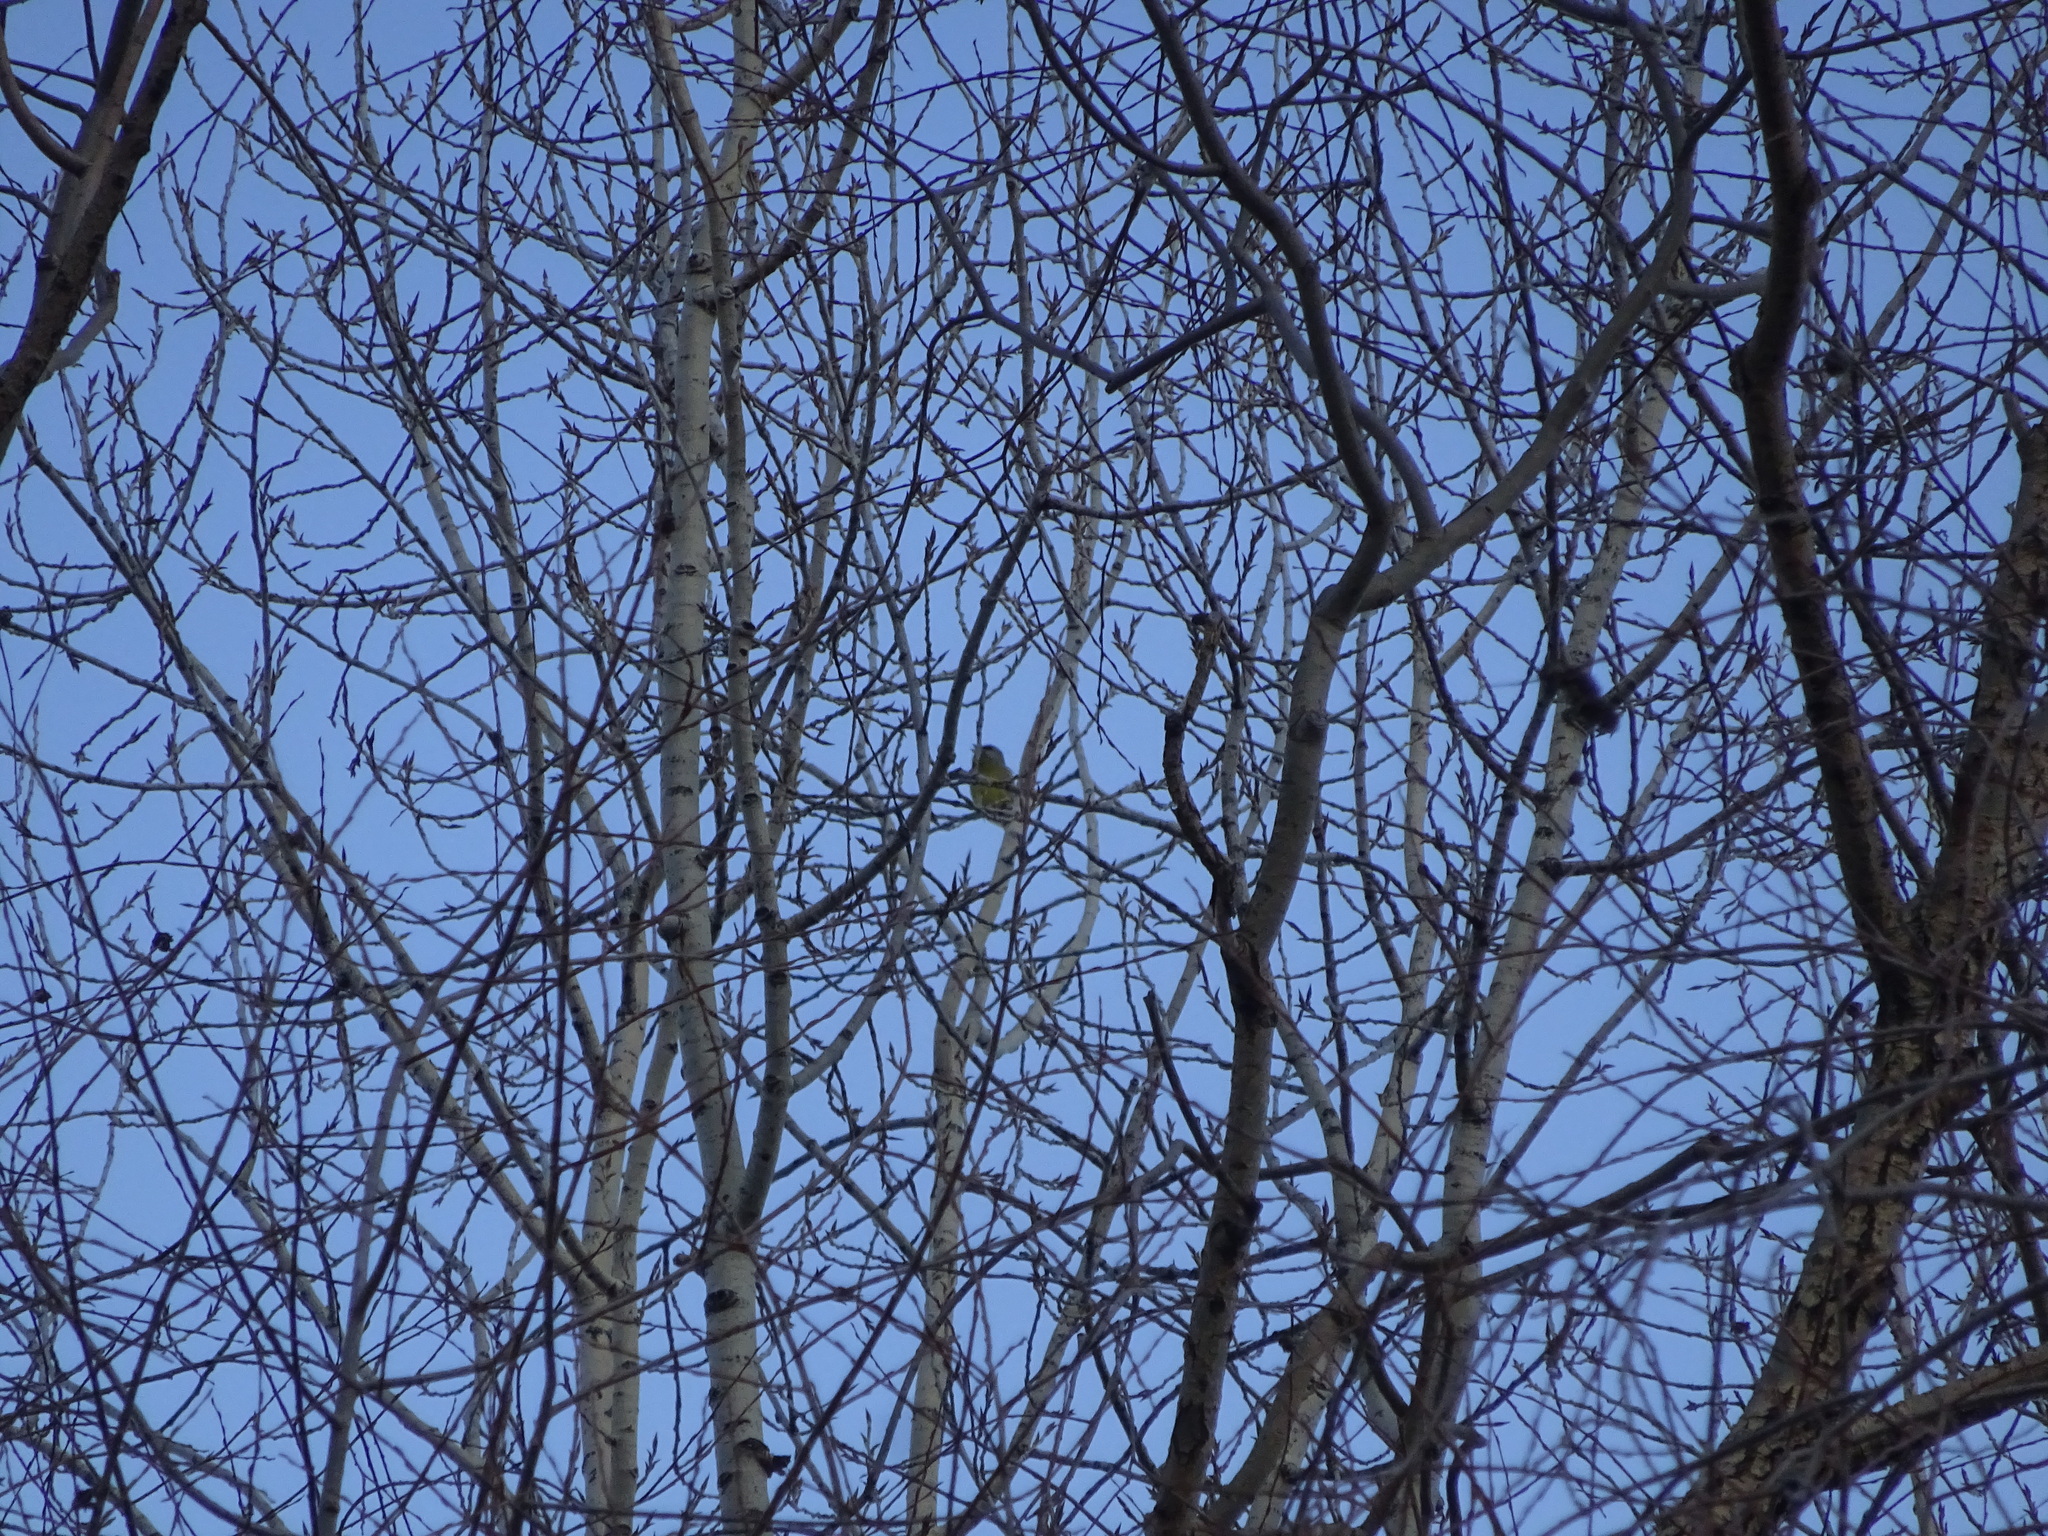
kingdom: Plantae
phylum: Tracheophyta
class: Liliopsida
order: Poales
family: Poaceae
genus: Chloris
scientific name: Chloris chloris
